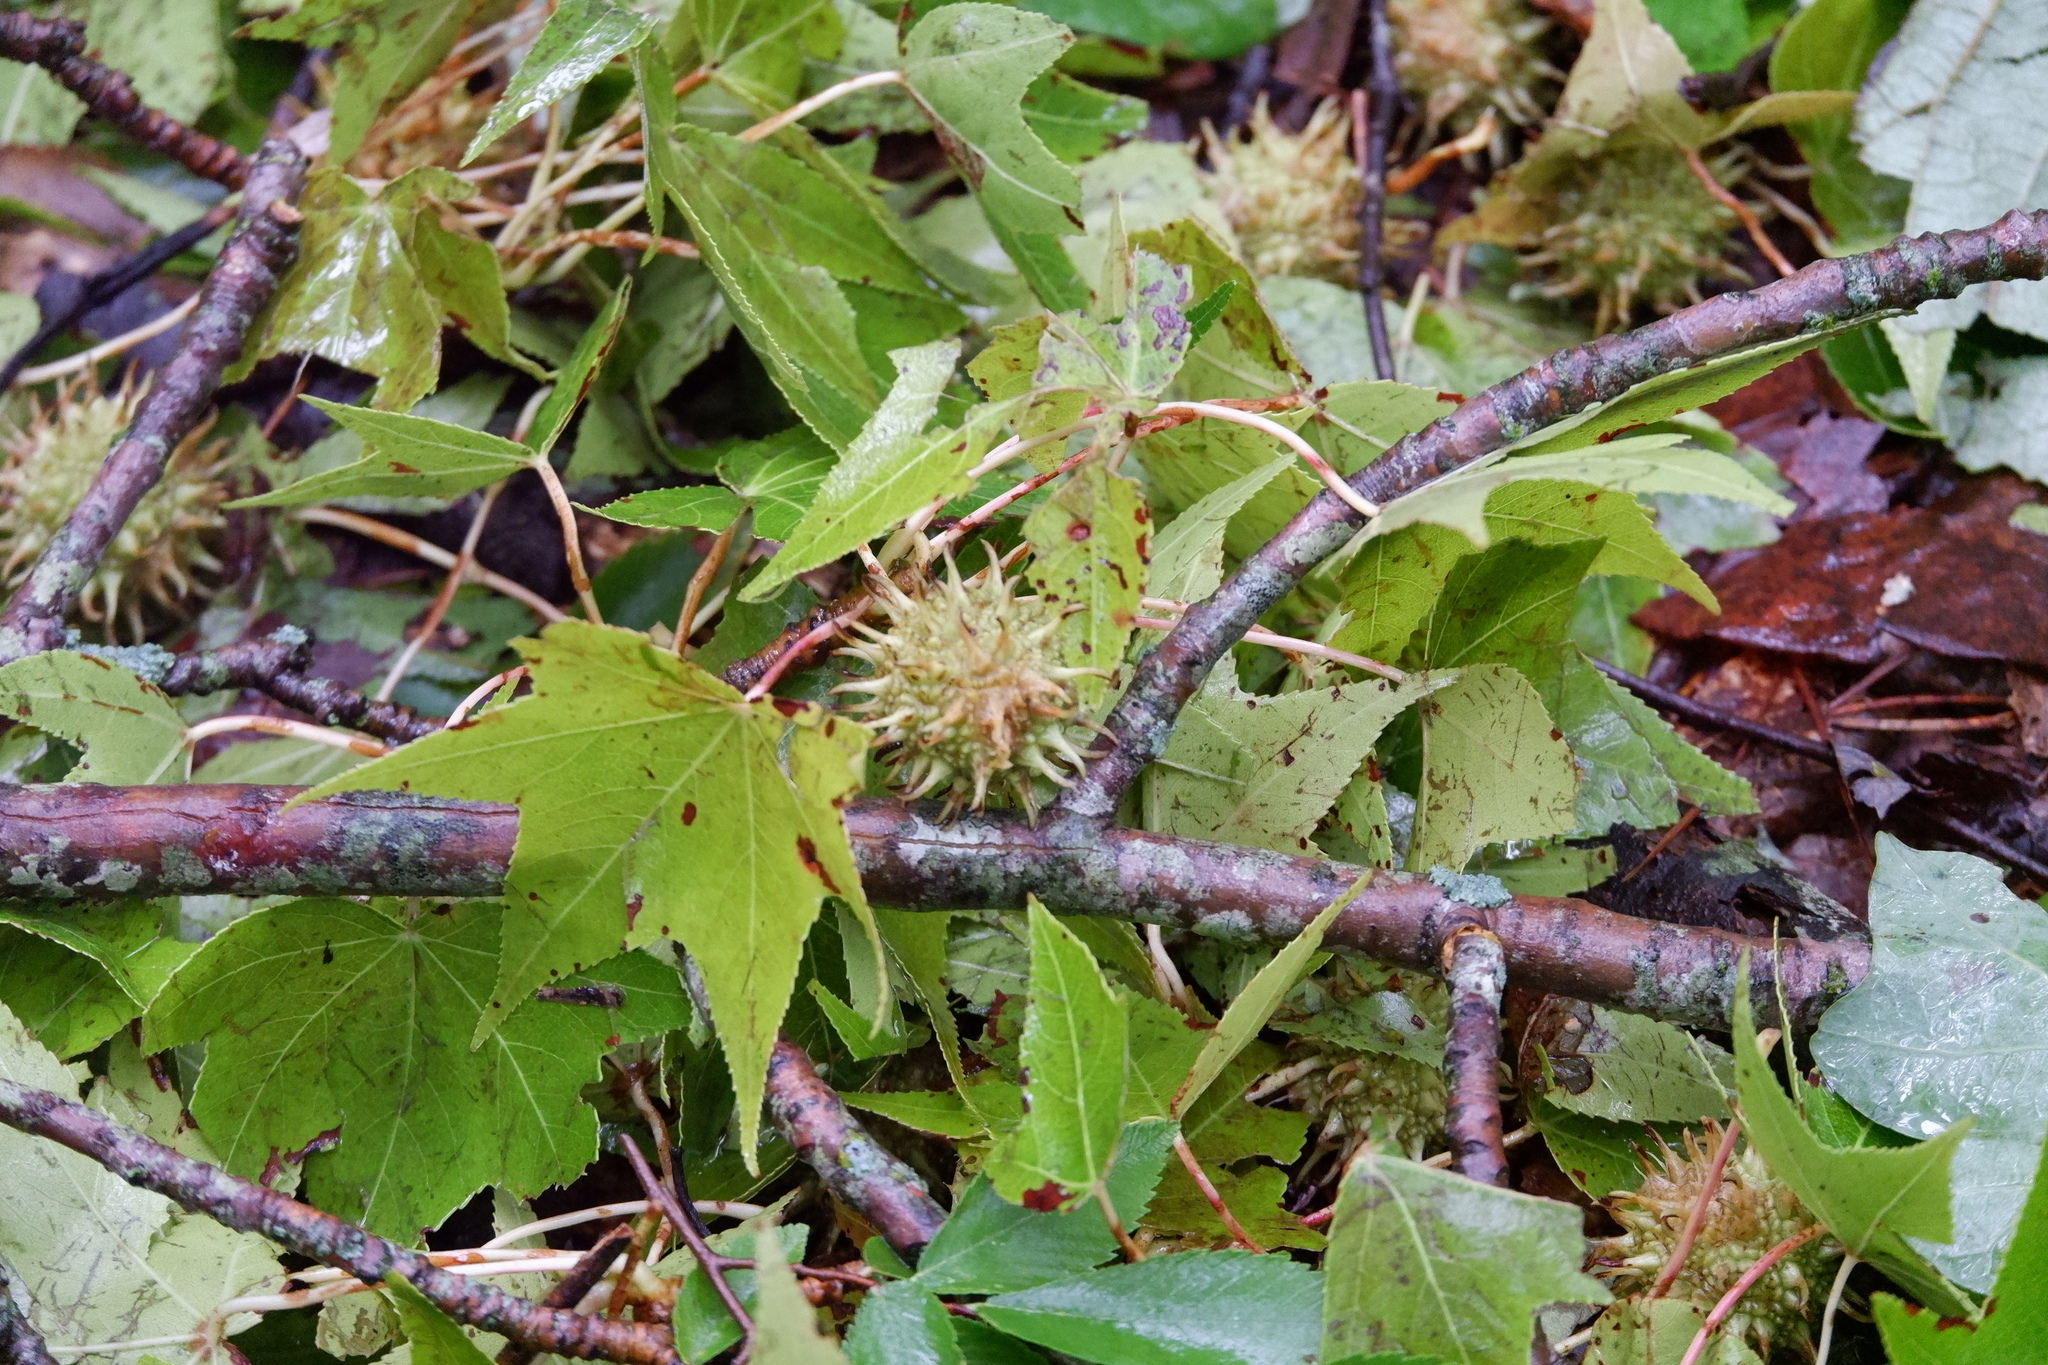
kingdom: Plantae
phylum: Tracheophyta
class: Magnoliopsida
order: Saxifragales
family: Altingiaceae
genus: Liquidambar
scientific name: Liquidambar styraciflua
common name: Sweet gum
